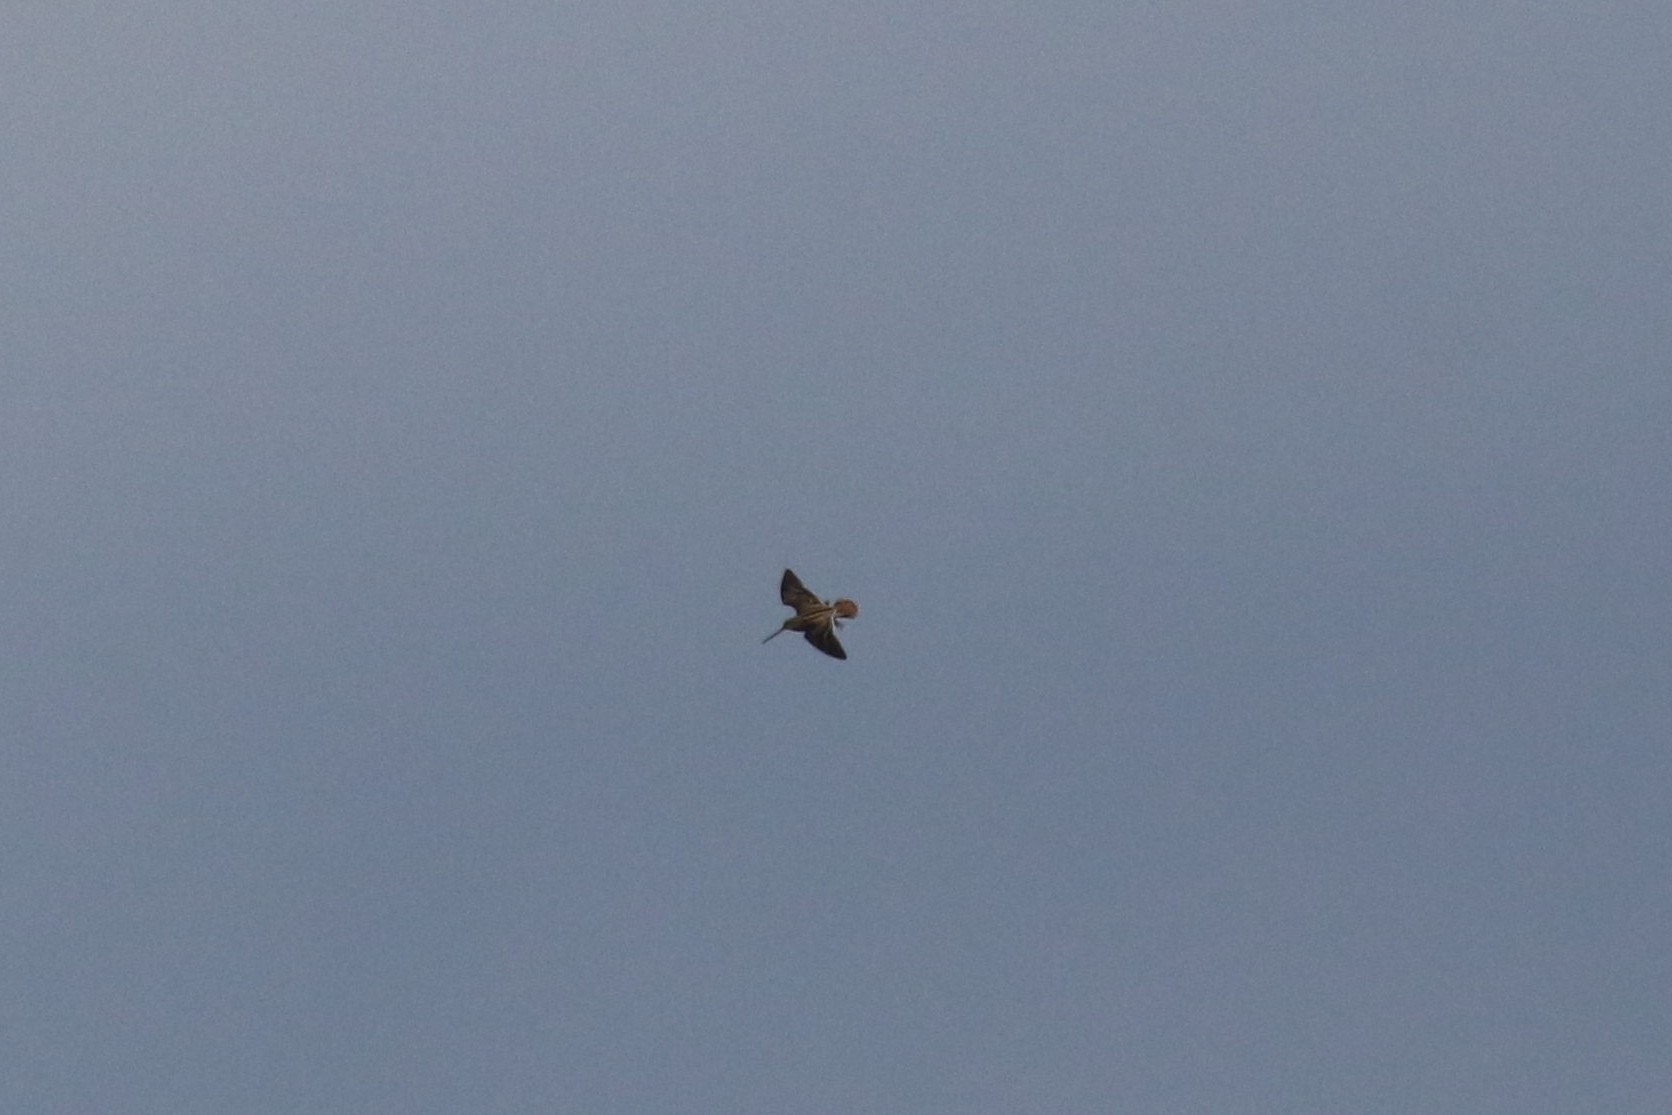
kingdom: Animalia
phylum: Chordata
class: Aves
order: Charadriiformes
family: Scolopacidae
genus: Gallinago
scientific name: Gallinago gallinago
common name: Common snipe
